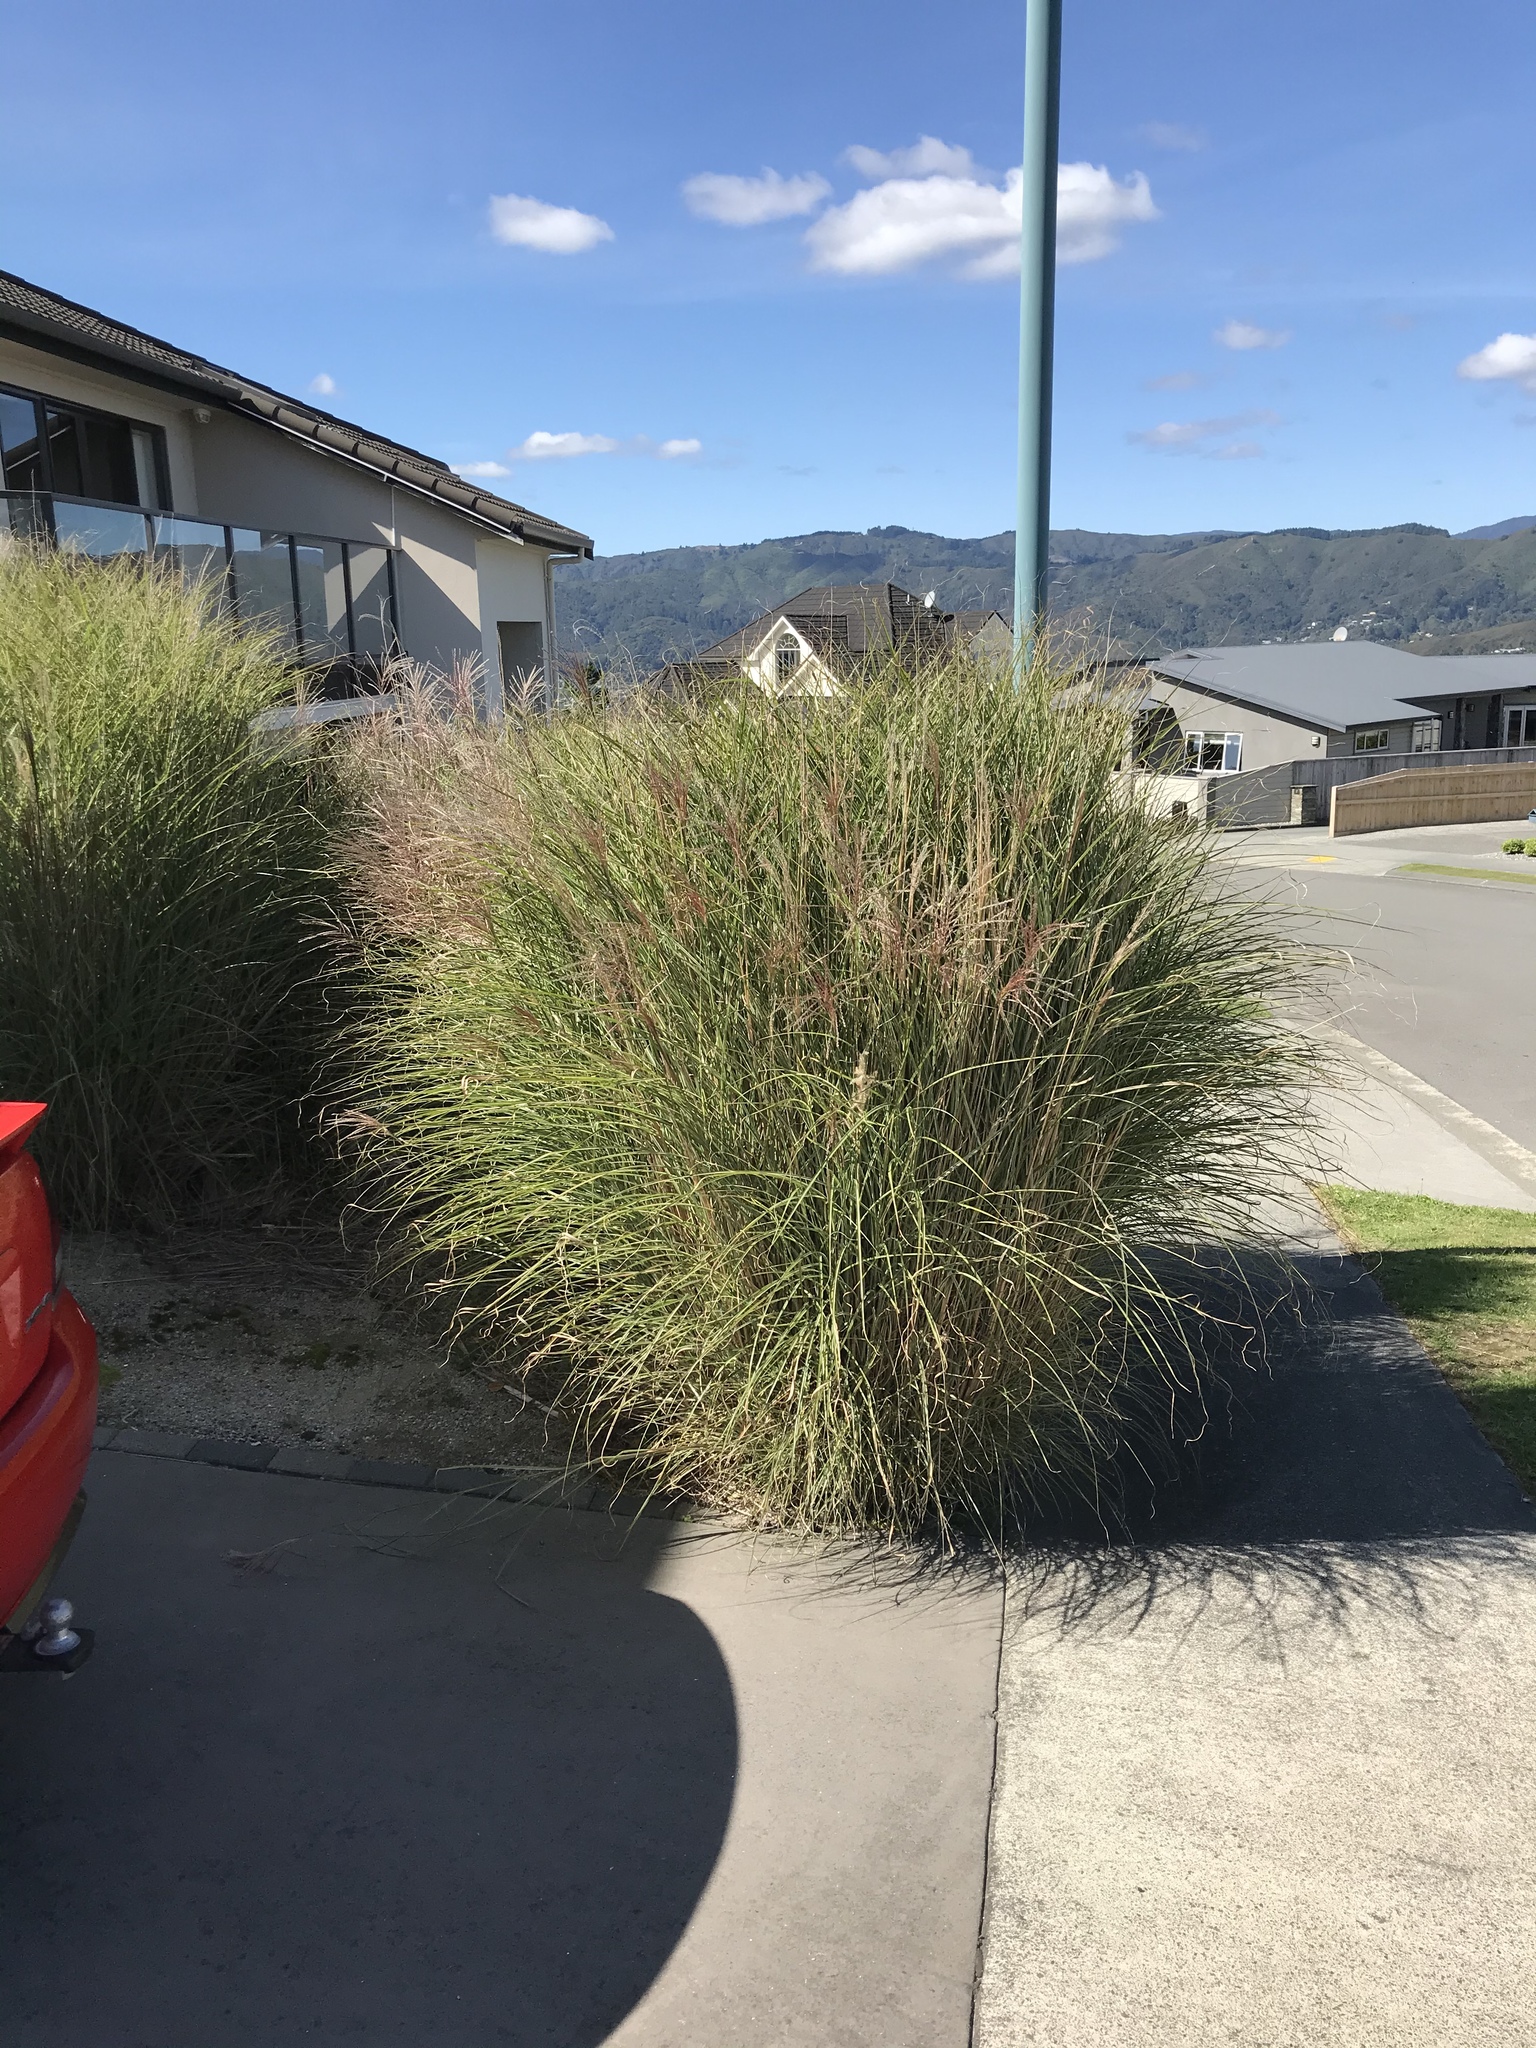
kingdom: Plantae
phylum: Tracheophyta
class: Liliopsida
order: Poales
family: Poaceae
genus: Miscanthus
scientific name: Miscanthus sinensis
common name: Chinese silvergrass
